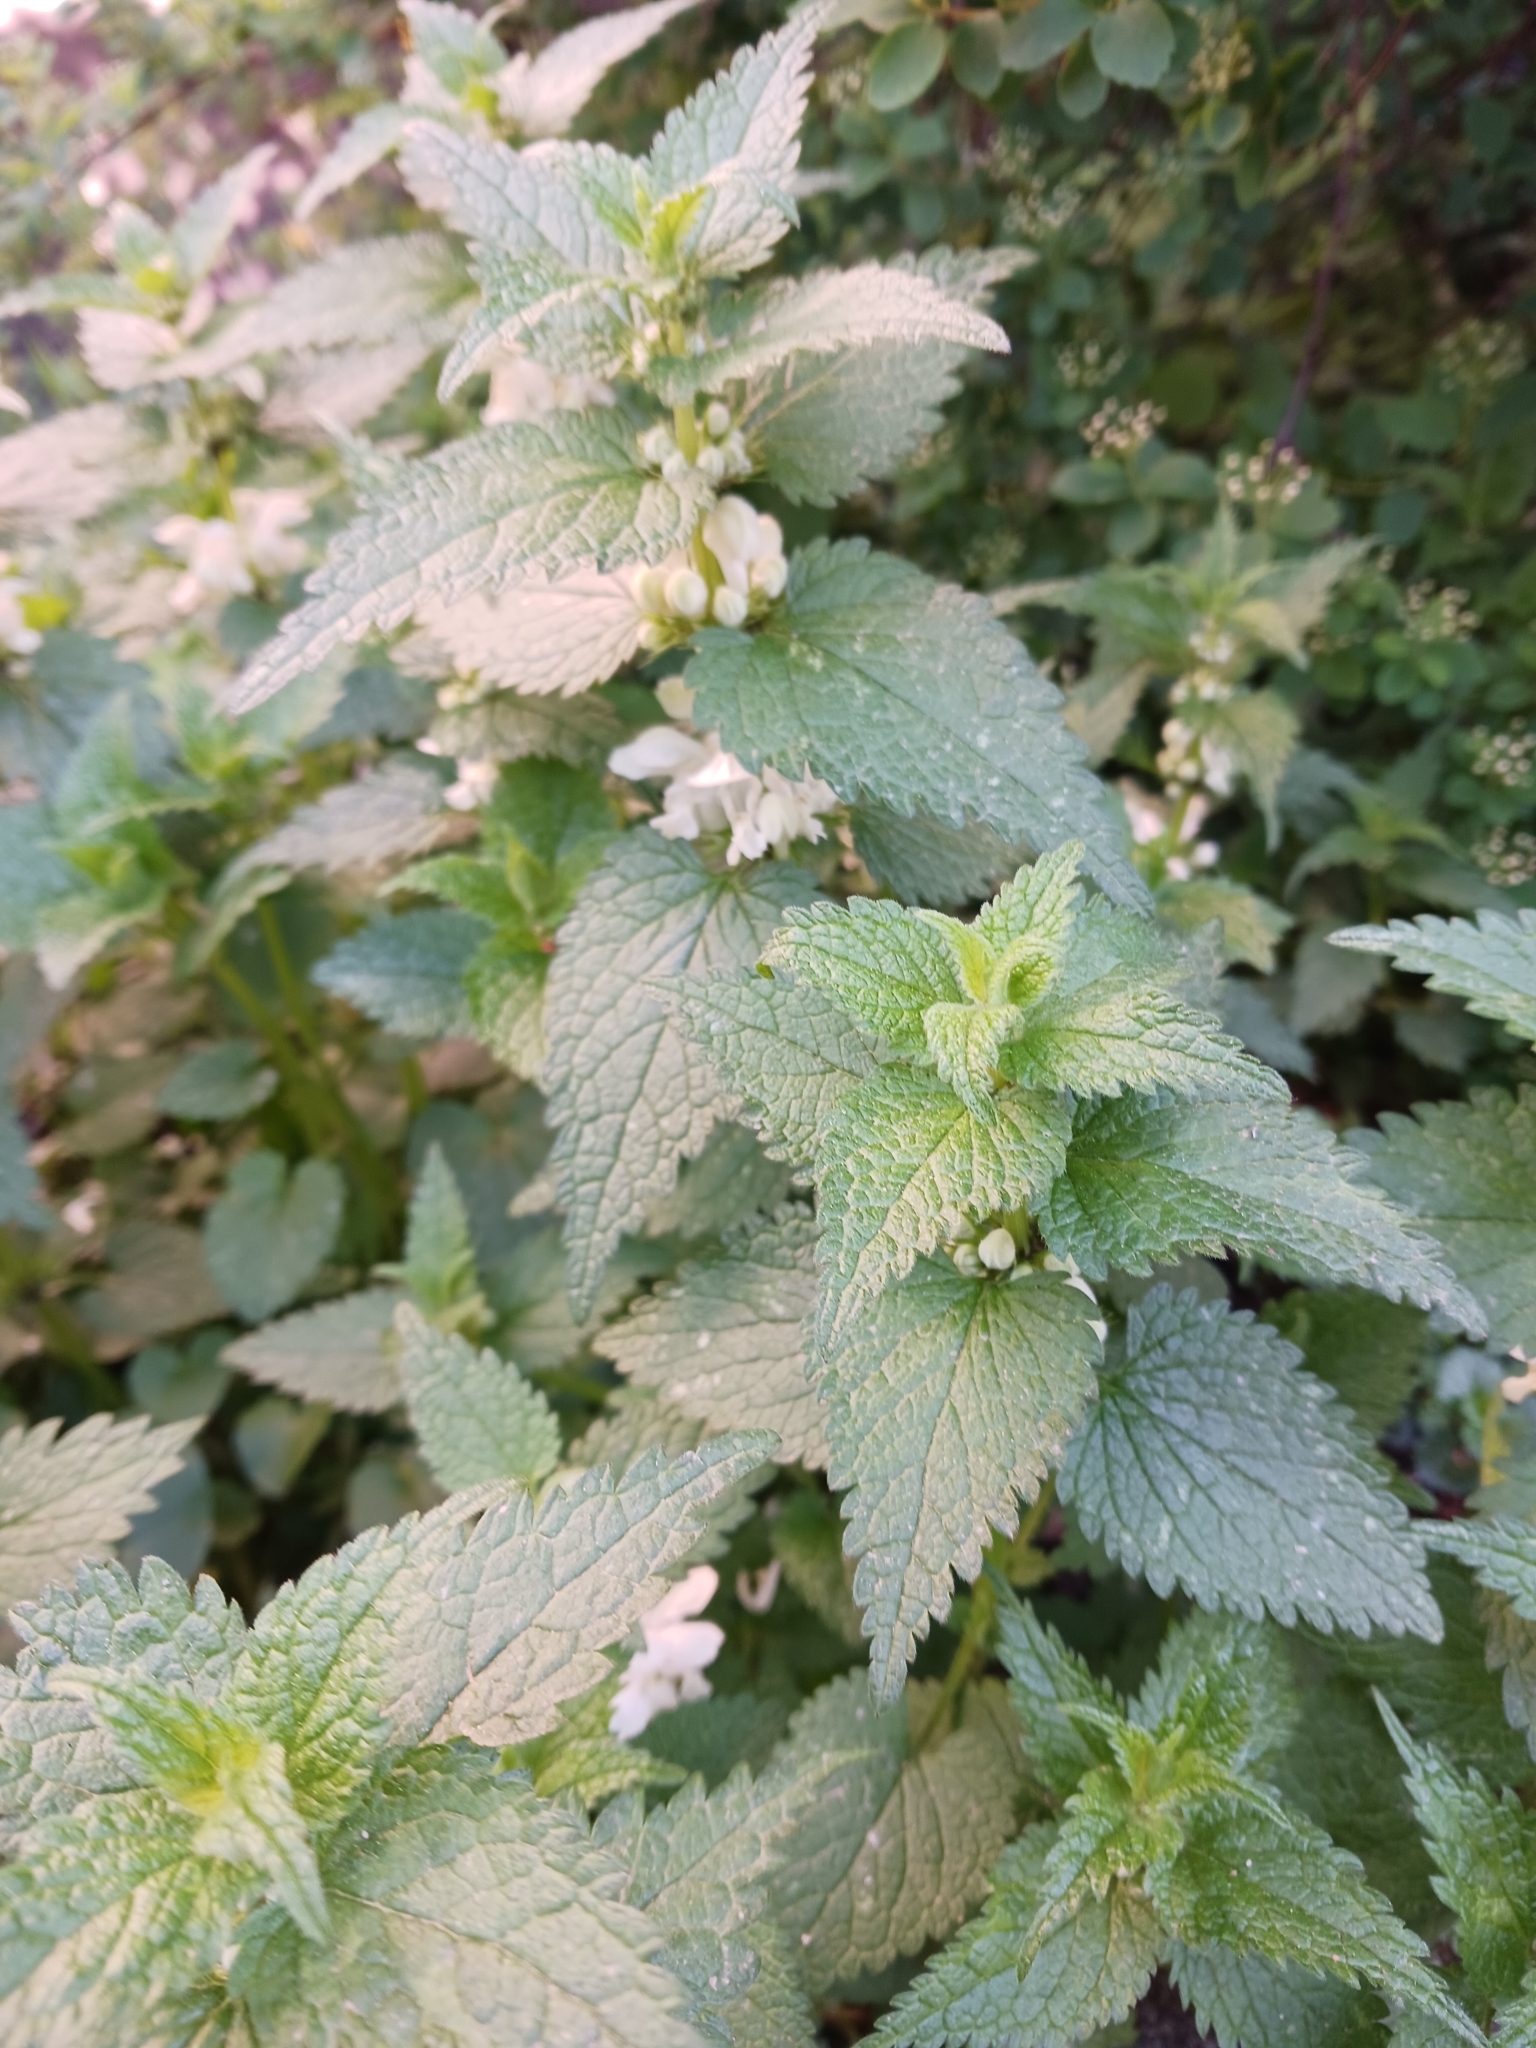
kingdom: Plantae
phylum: Tracheophyta
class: Magnoliopsida
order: Lamiales
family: Lamiaceae
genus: Lamium
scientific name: Lamium album
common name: White dead-nettle
